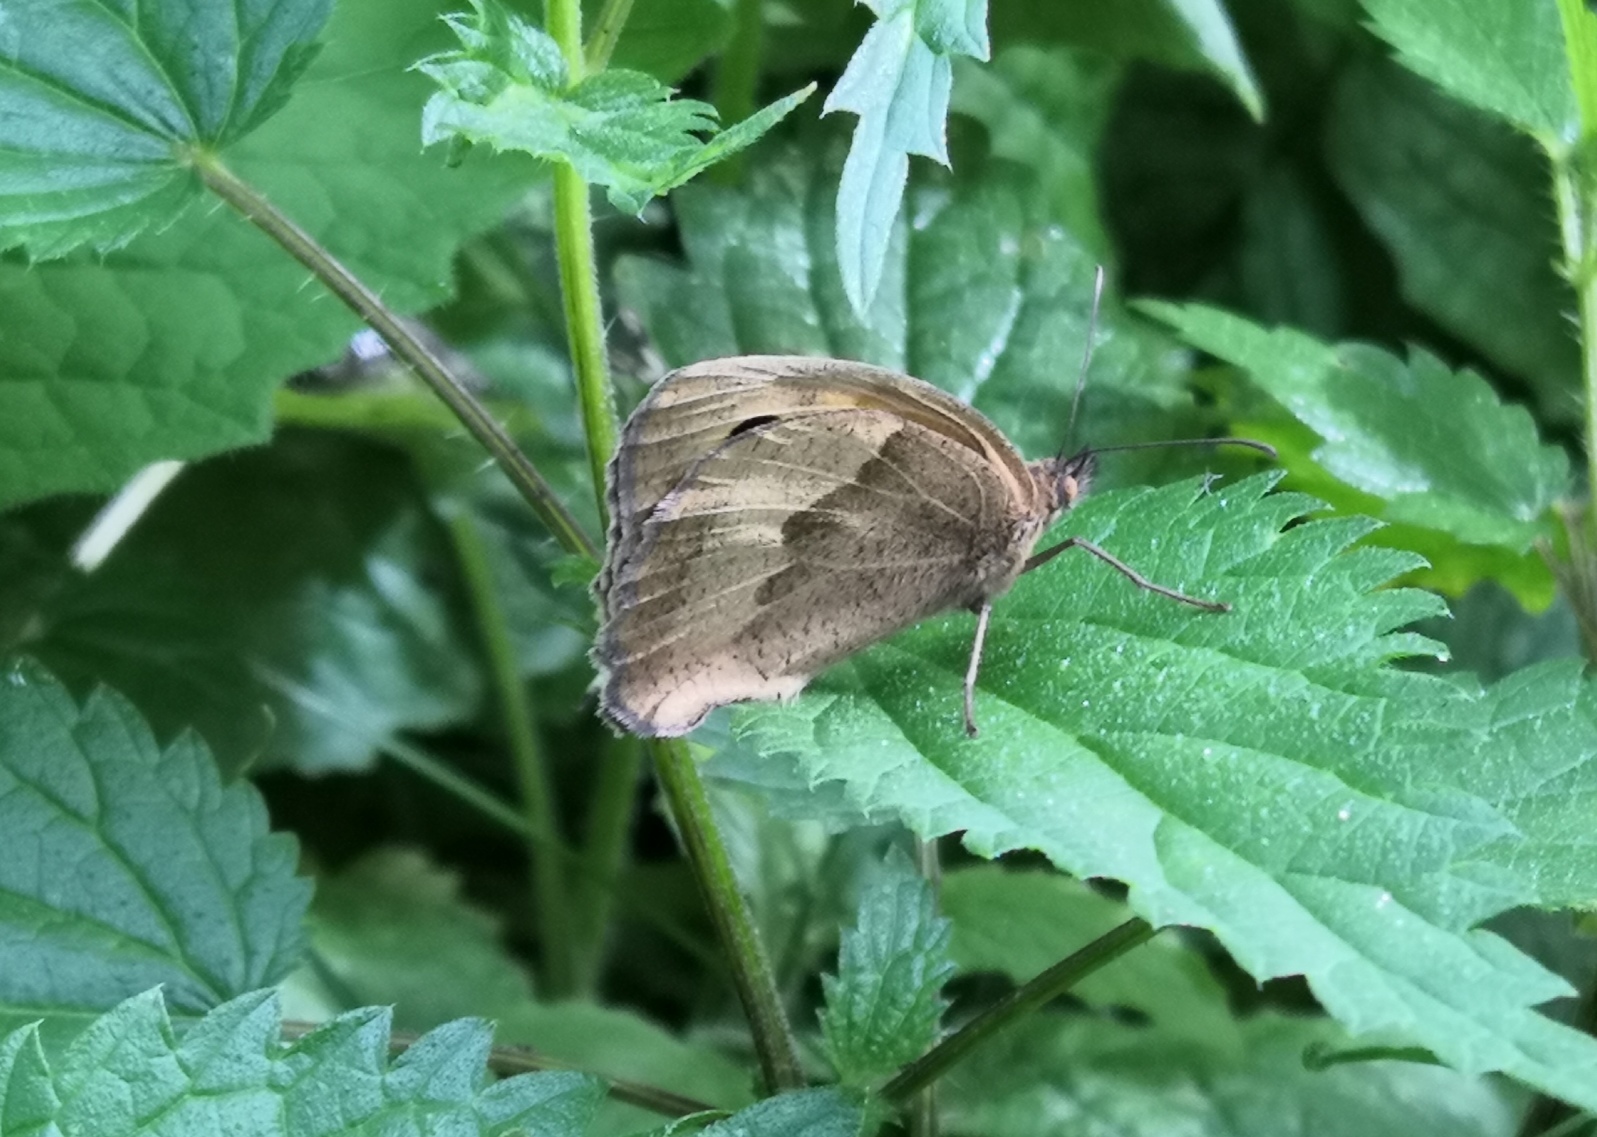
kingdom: Animalia
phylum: Arthropoda
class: Insecta
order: Lepidoptera
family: Nymphalidae
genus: Maniola
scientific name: Maniola jurtina
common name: Meadow brown
